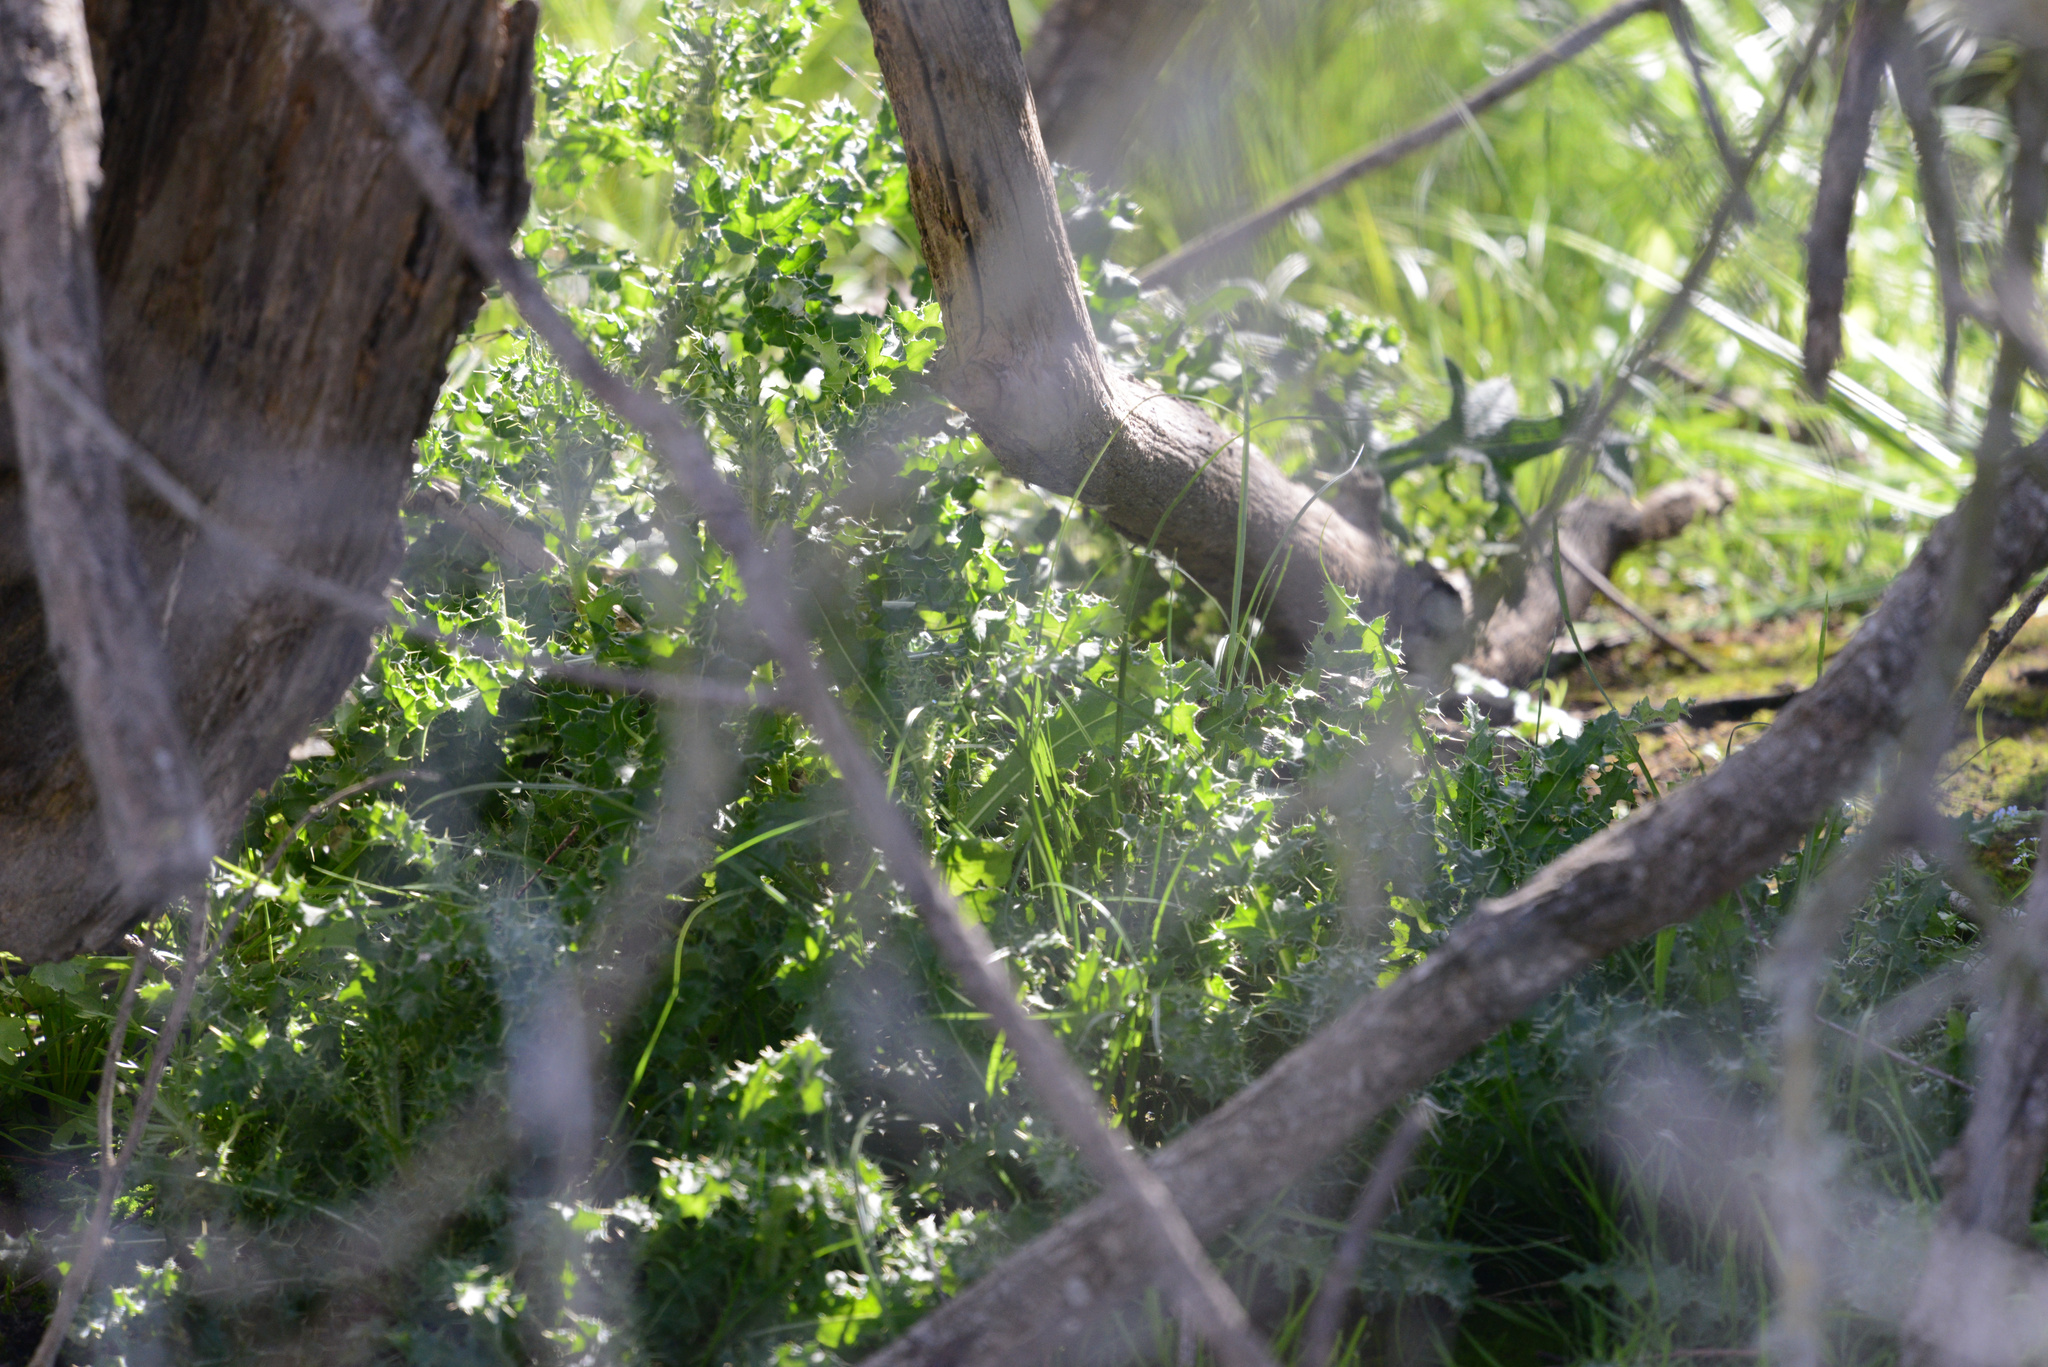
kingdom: Plantae
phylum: Tracheophyta
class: Magnoliopsida
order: Asterales
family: Asteraceae
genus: Cirsium
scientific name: Cirsium arvense
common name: Creeping thistle
